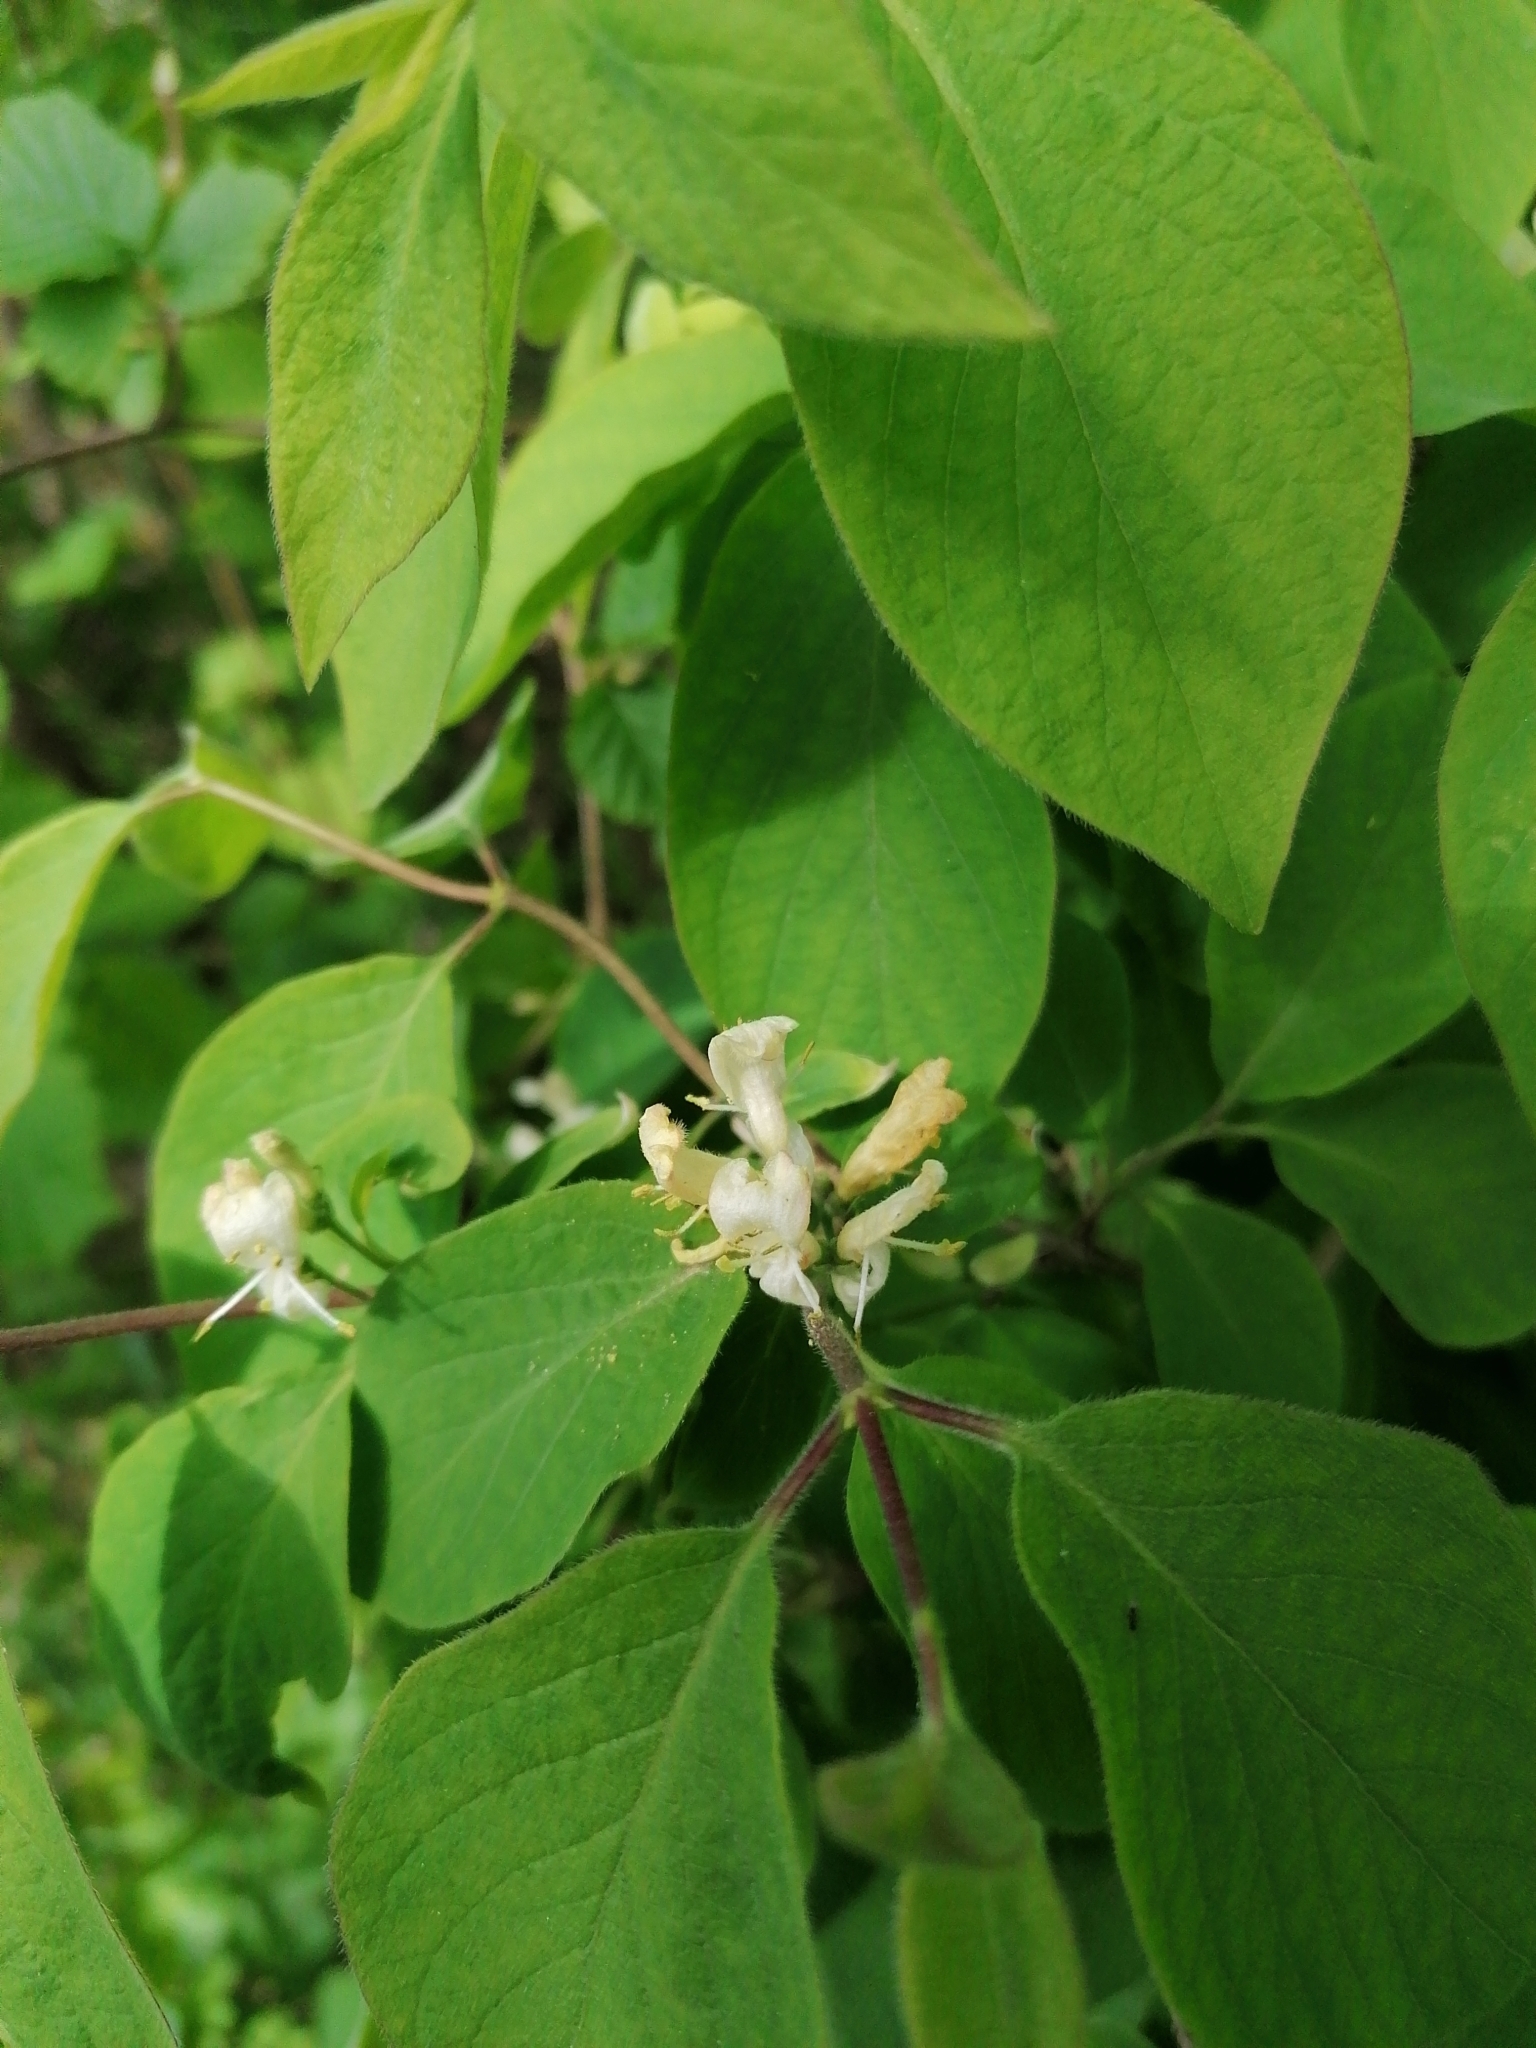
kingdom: Plantae
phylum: Tracheophyta
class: Magnoliopsida
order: Dipsacales
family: Caprifoliaceae
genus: Lonicera
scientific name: Lonicera xylosteum
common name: Fly honeysuckle
